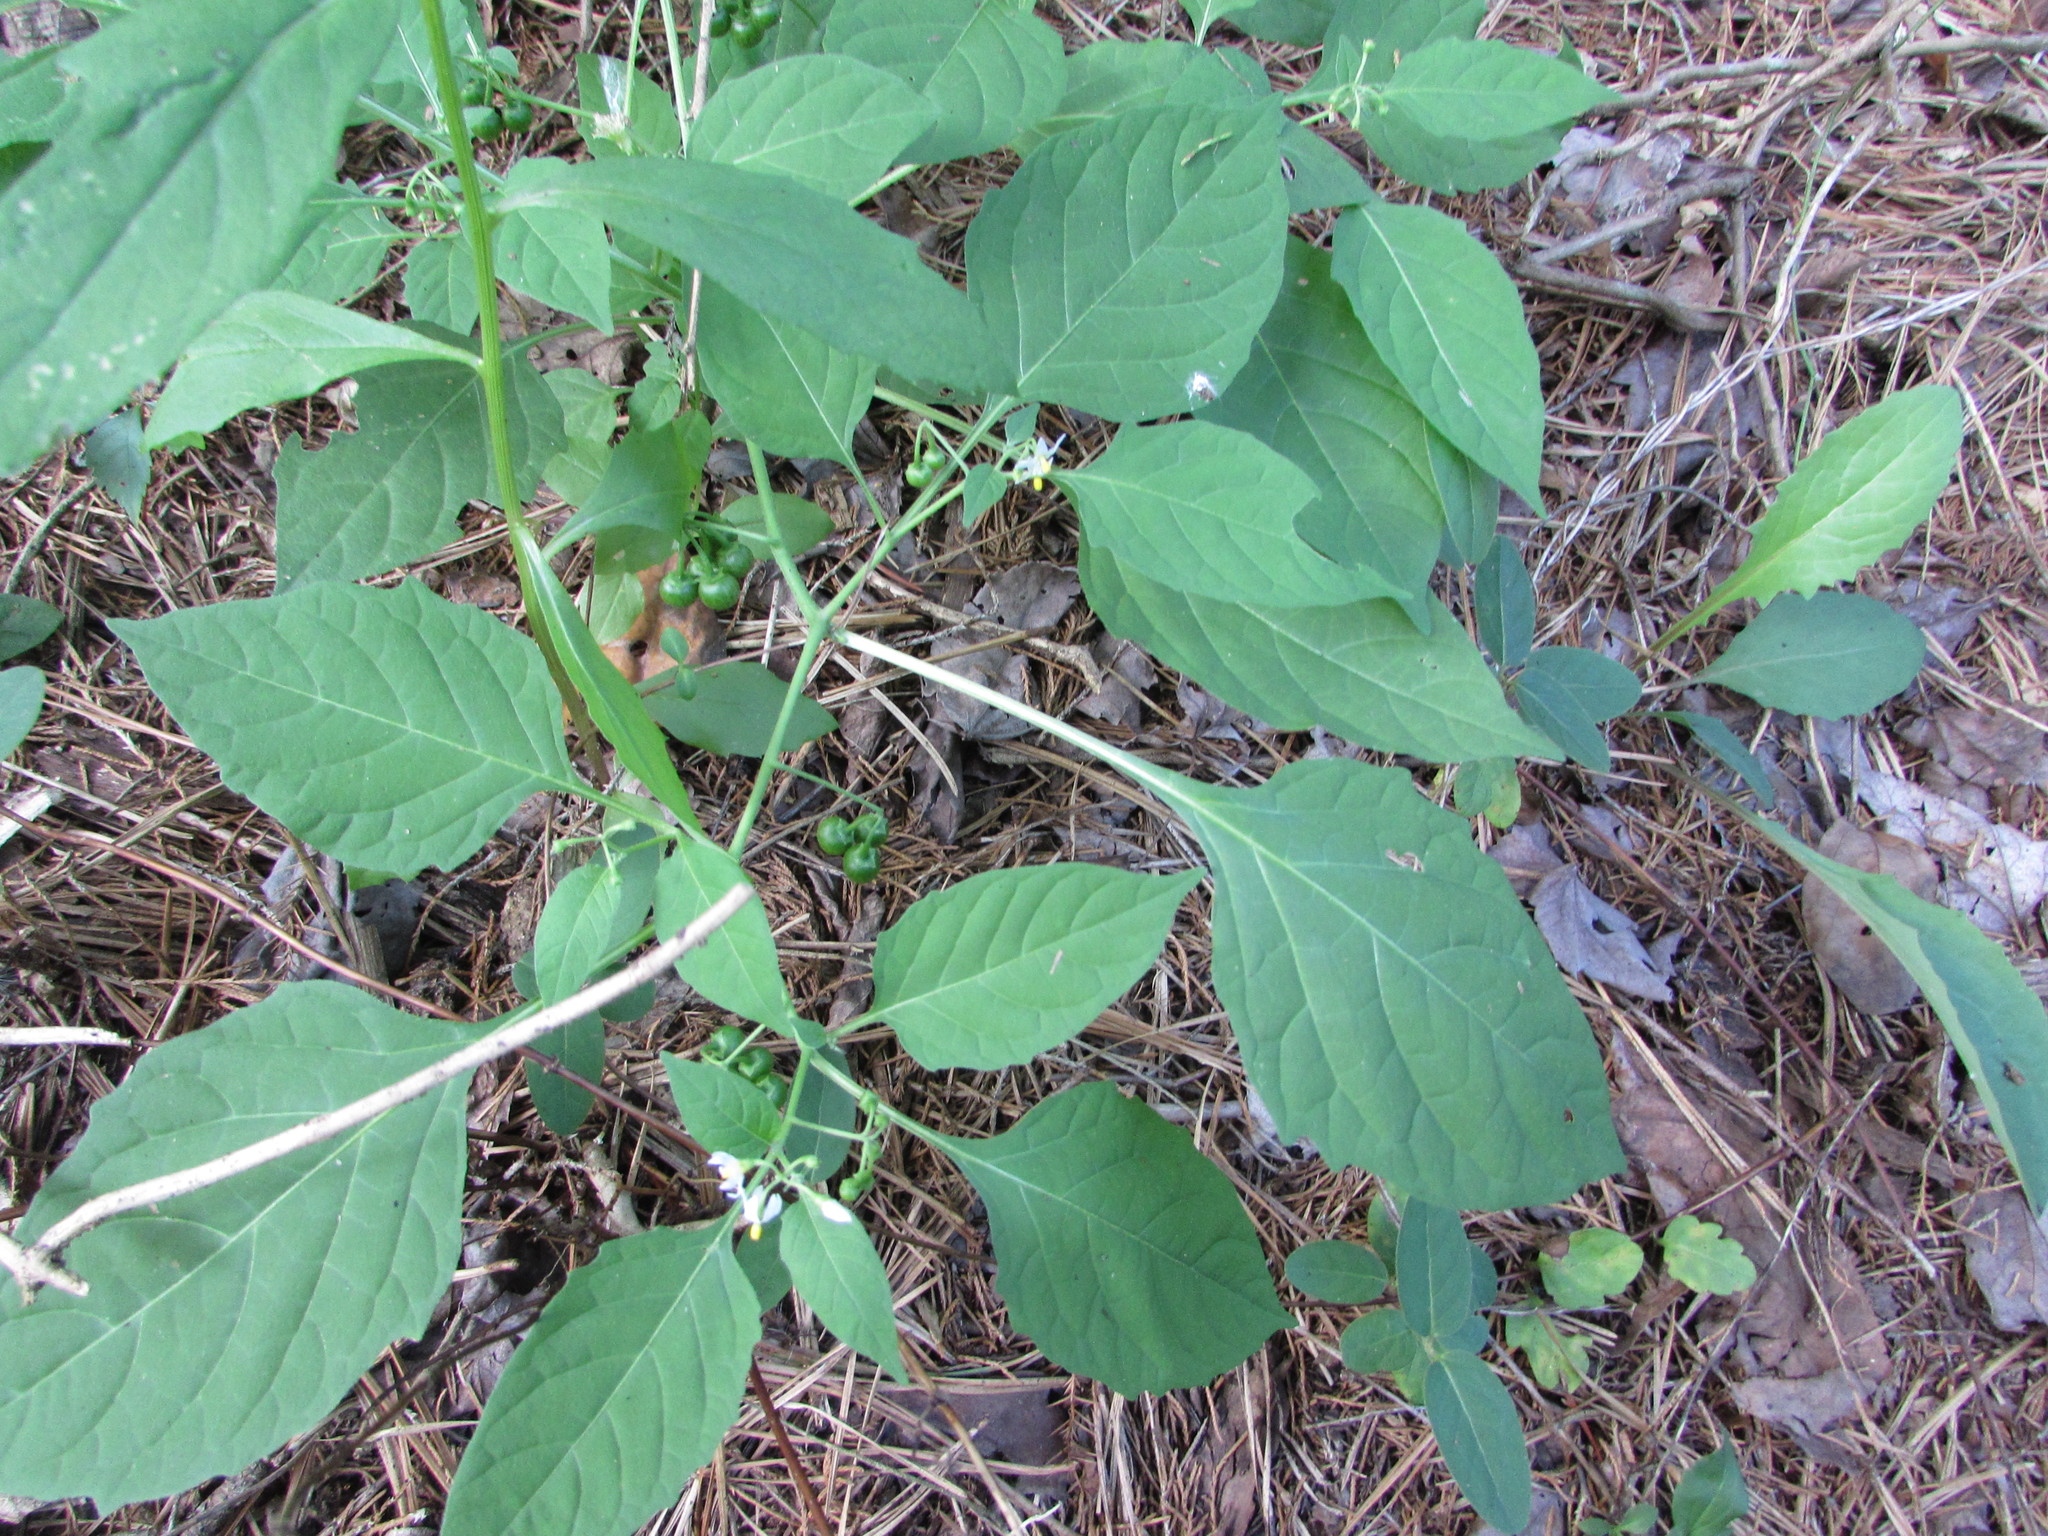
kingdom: Plantae
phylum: Tracheophyta
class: Magnoliopsida
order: Solanales
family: Solanaceae
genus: Solanum
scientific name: Solanum emulans
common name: Eastern black nightshade
